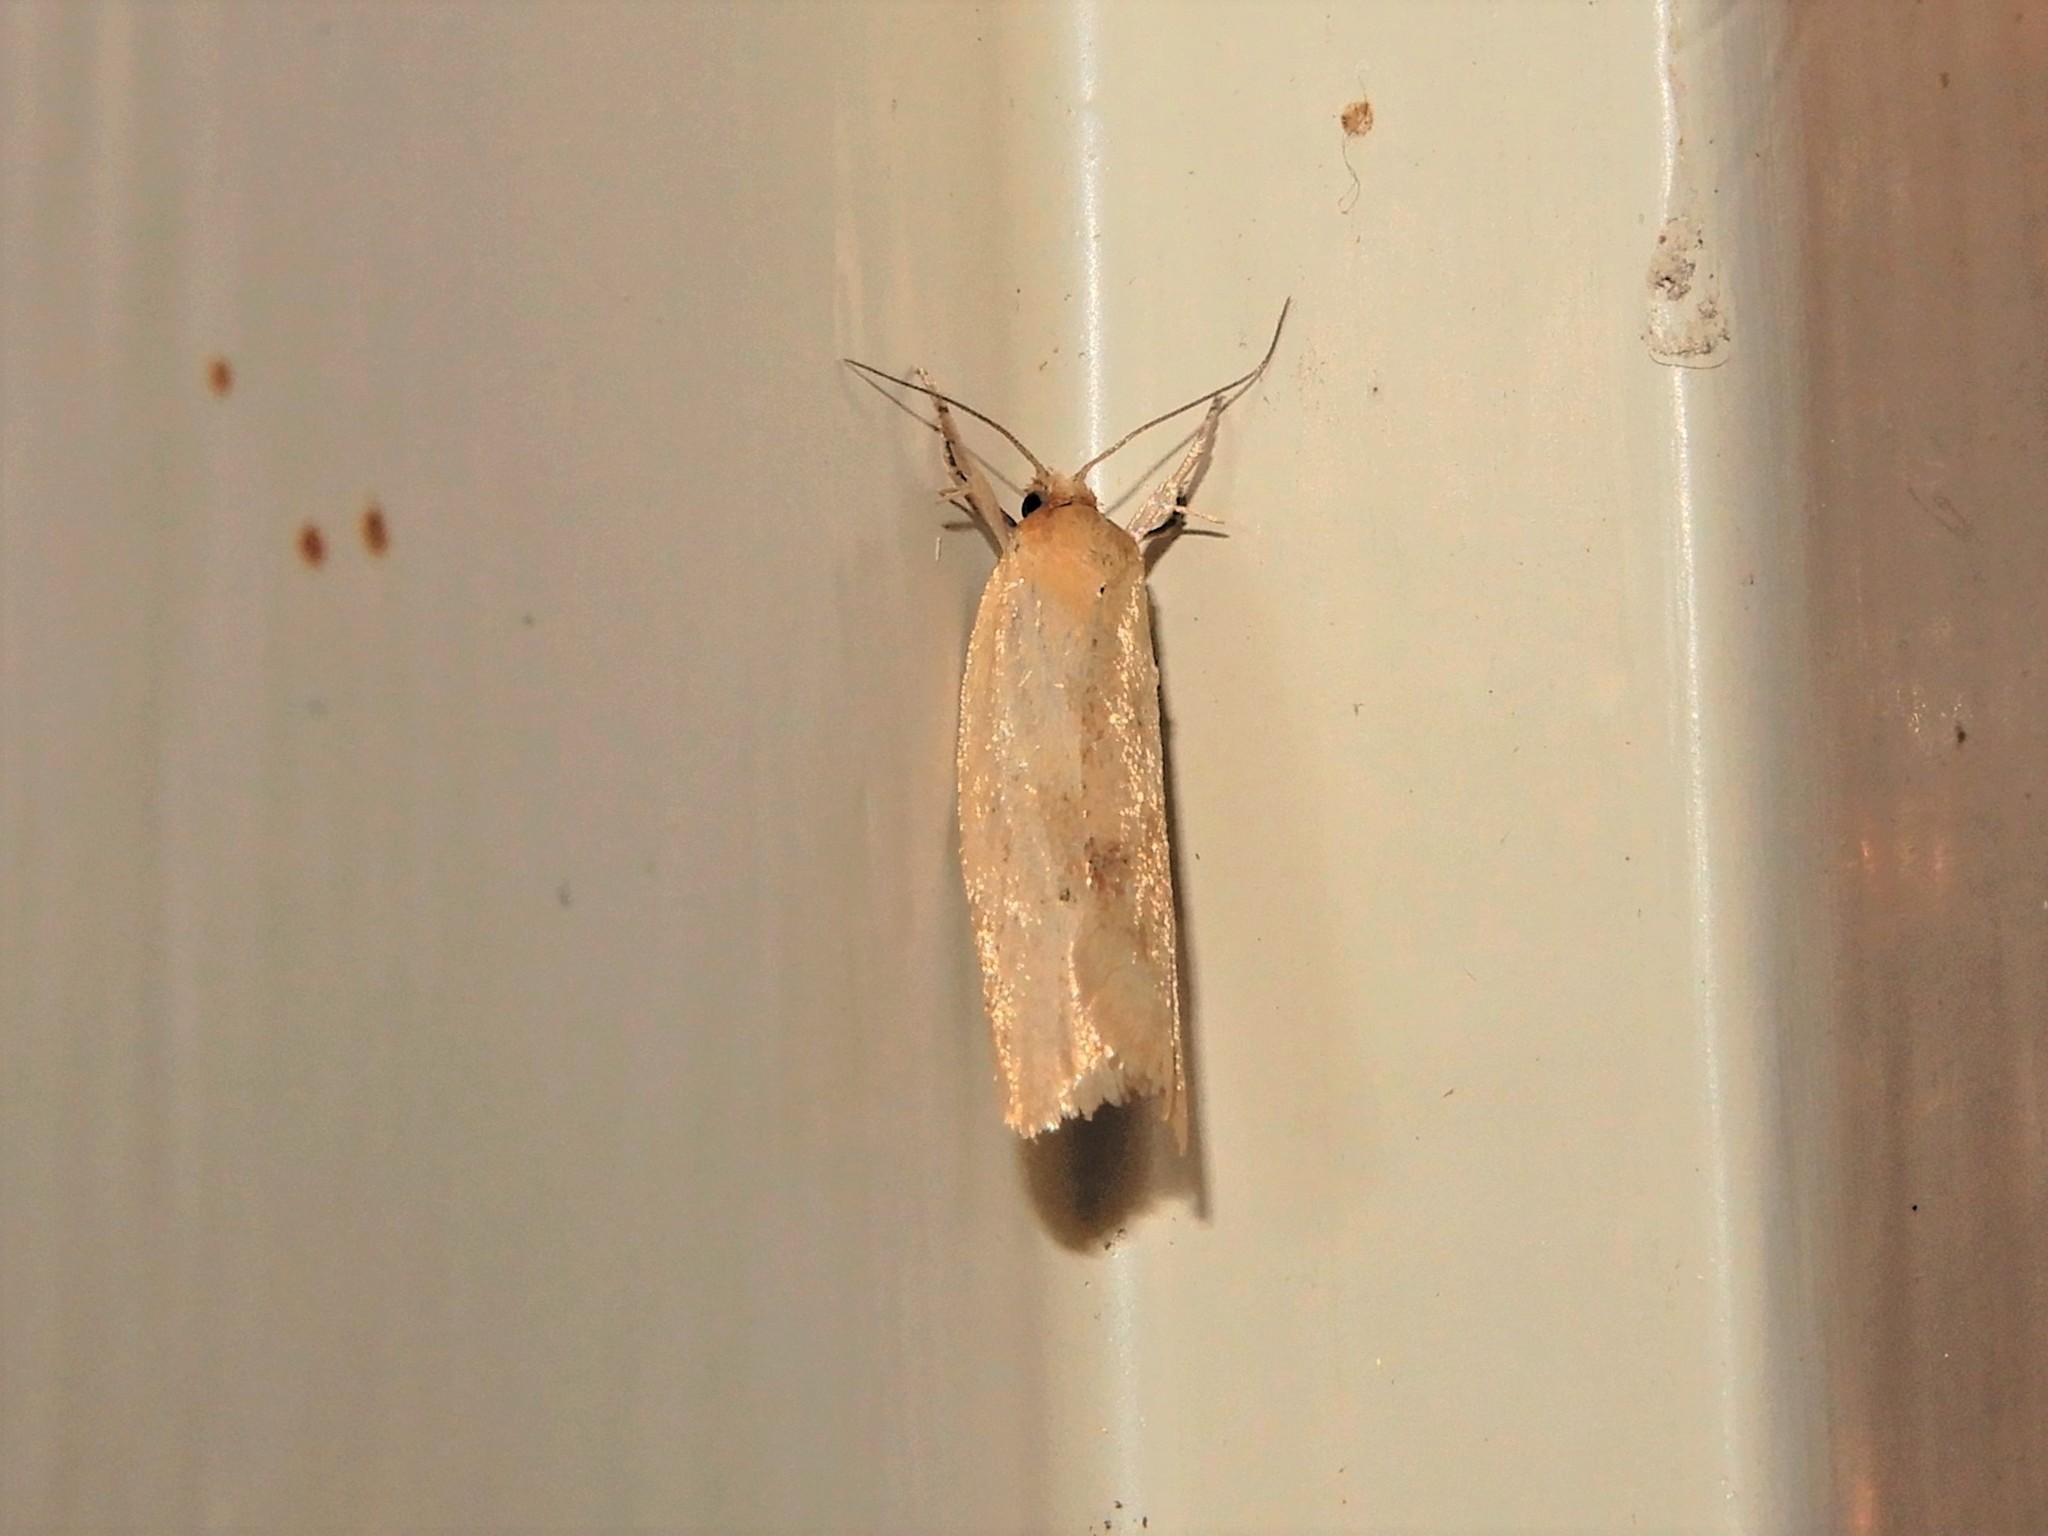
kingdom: Animalia
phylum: Arthropoda
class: Insecta
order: Lepidoptera
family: Tortricidae
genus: Clepsis
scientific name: Clepsis
